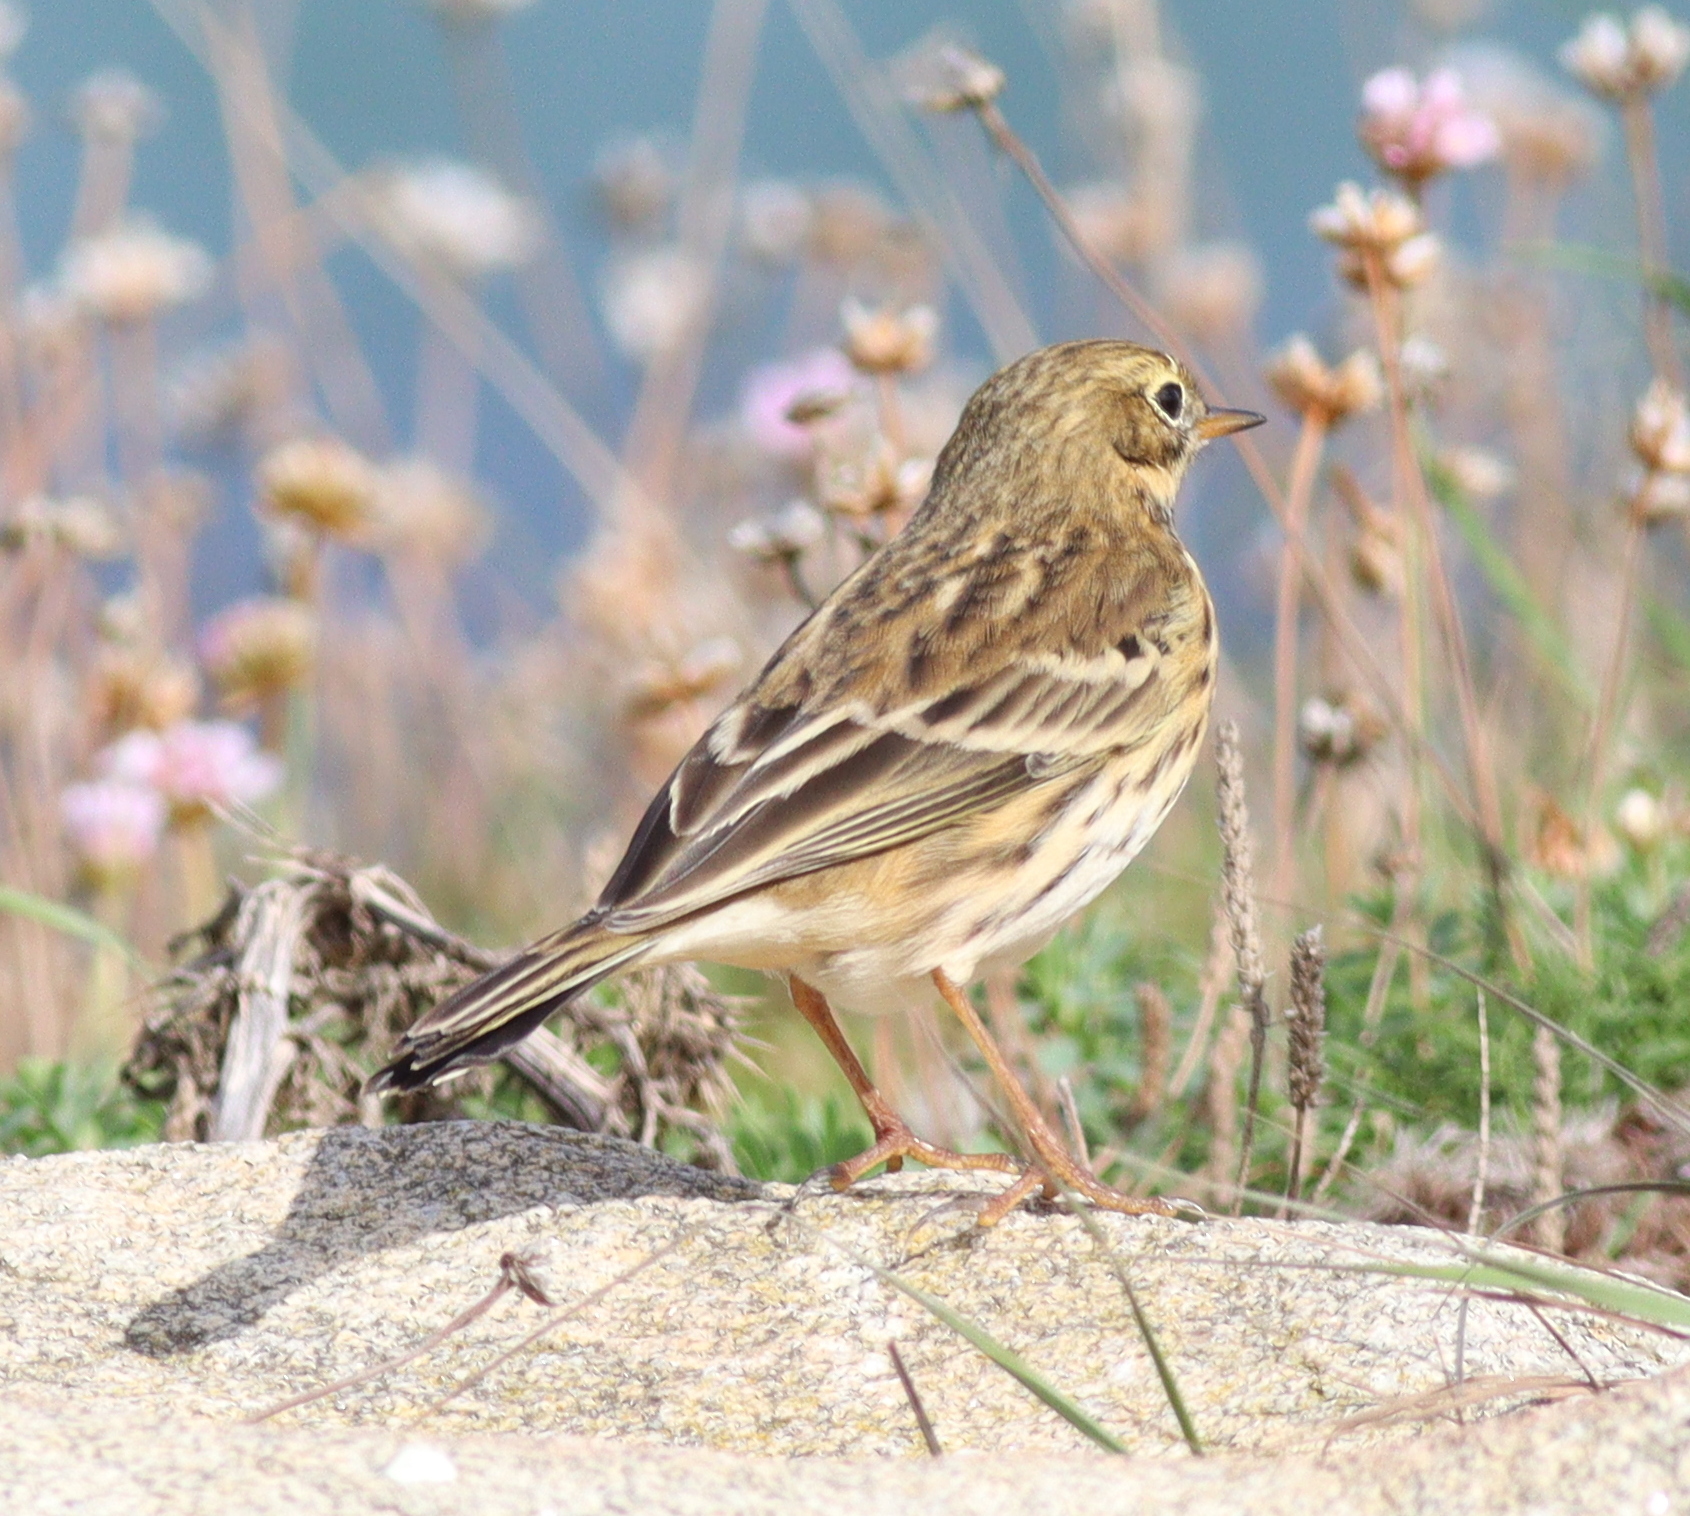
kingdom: Animalia
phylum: Chordata
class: Aves
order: Passeriformes
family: Motacillidae
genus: Anthus
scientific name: Anthus pratensis
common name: Meadow pipit
